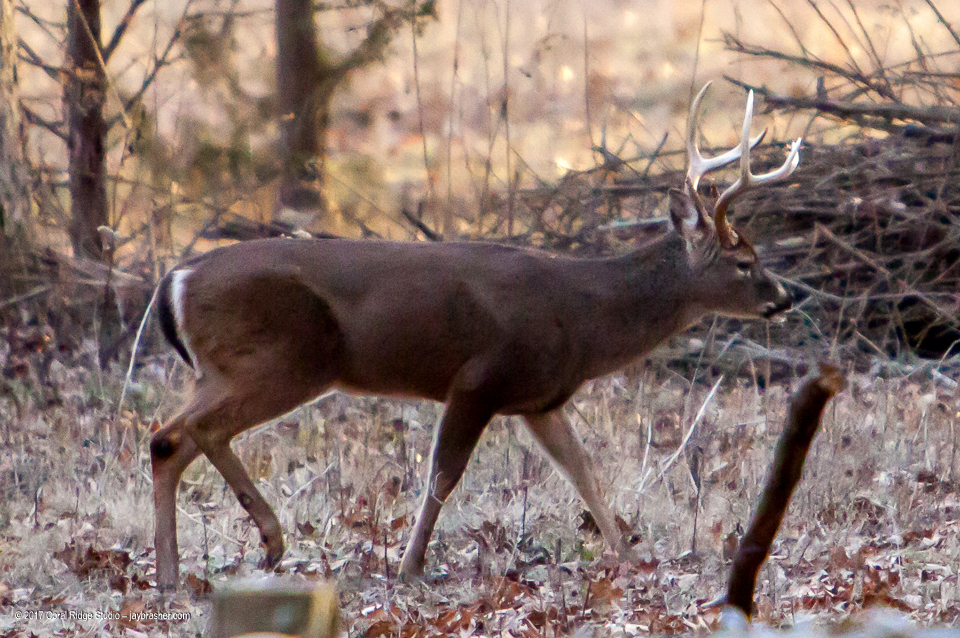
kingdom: Animalia
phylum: Chordata
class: Mammalia
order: Artiodactyla
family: Cervidae
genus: Odocoileus
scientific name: Odocoileus virginianus
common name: White-tailed deer
